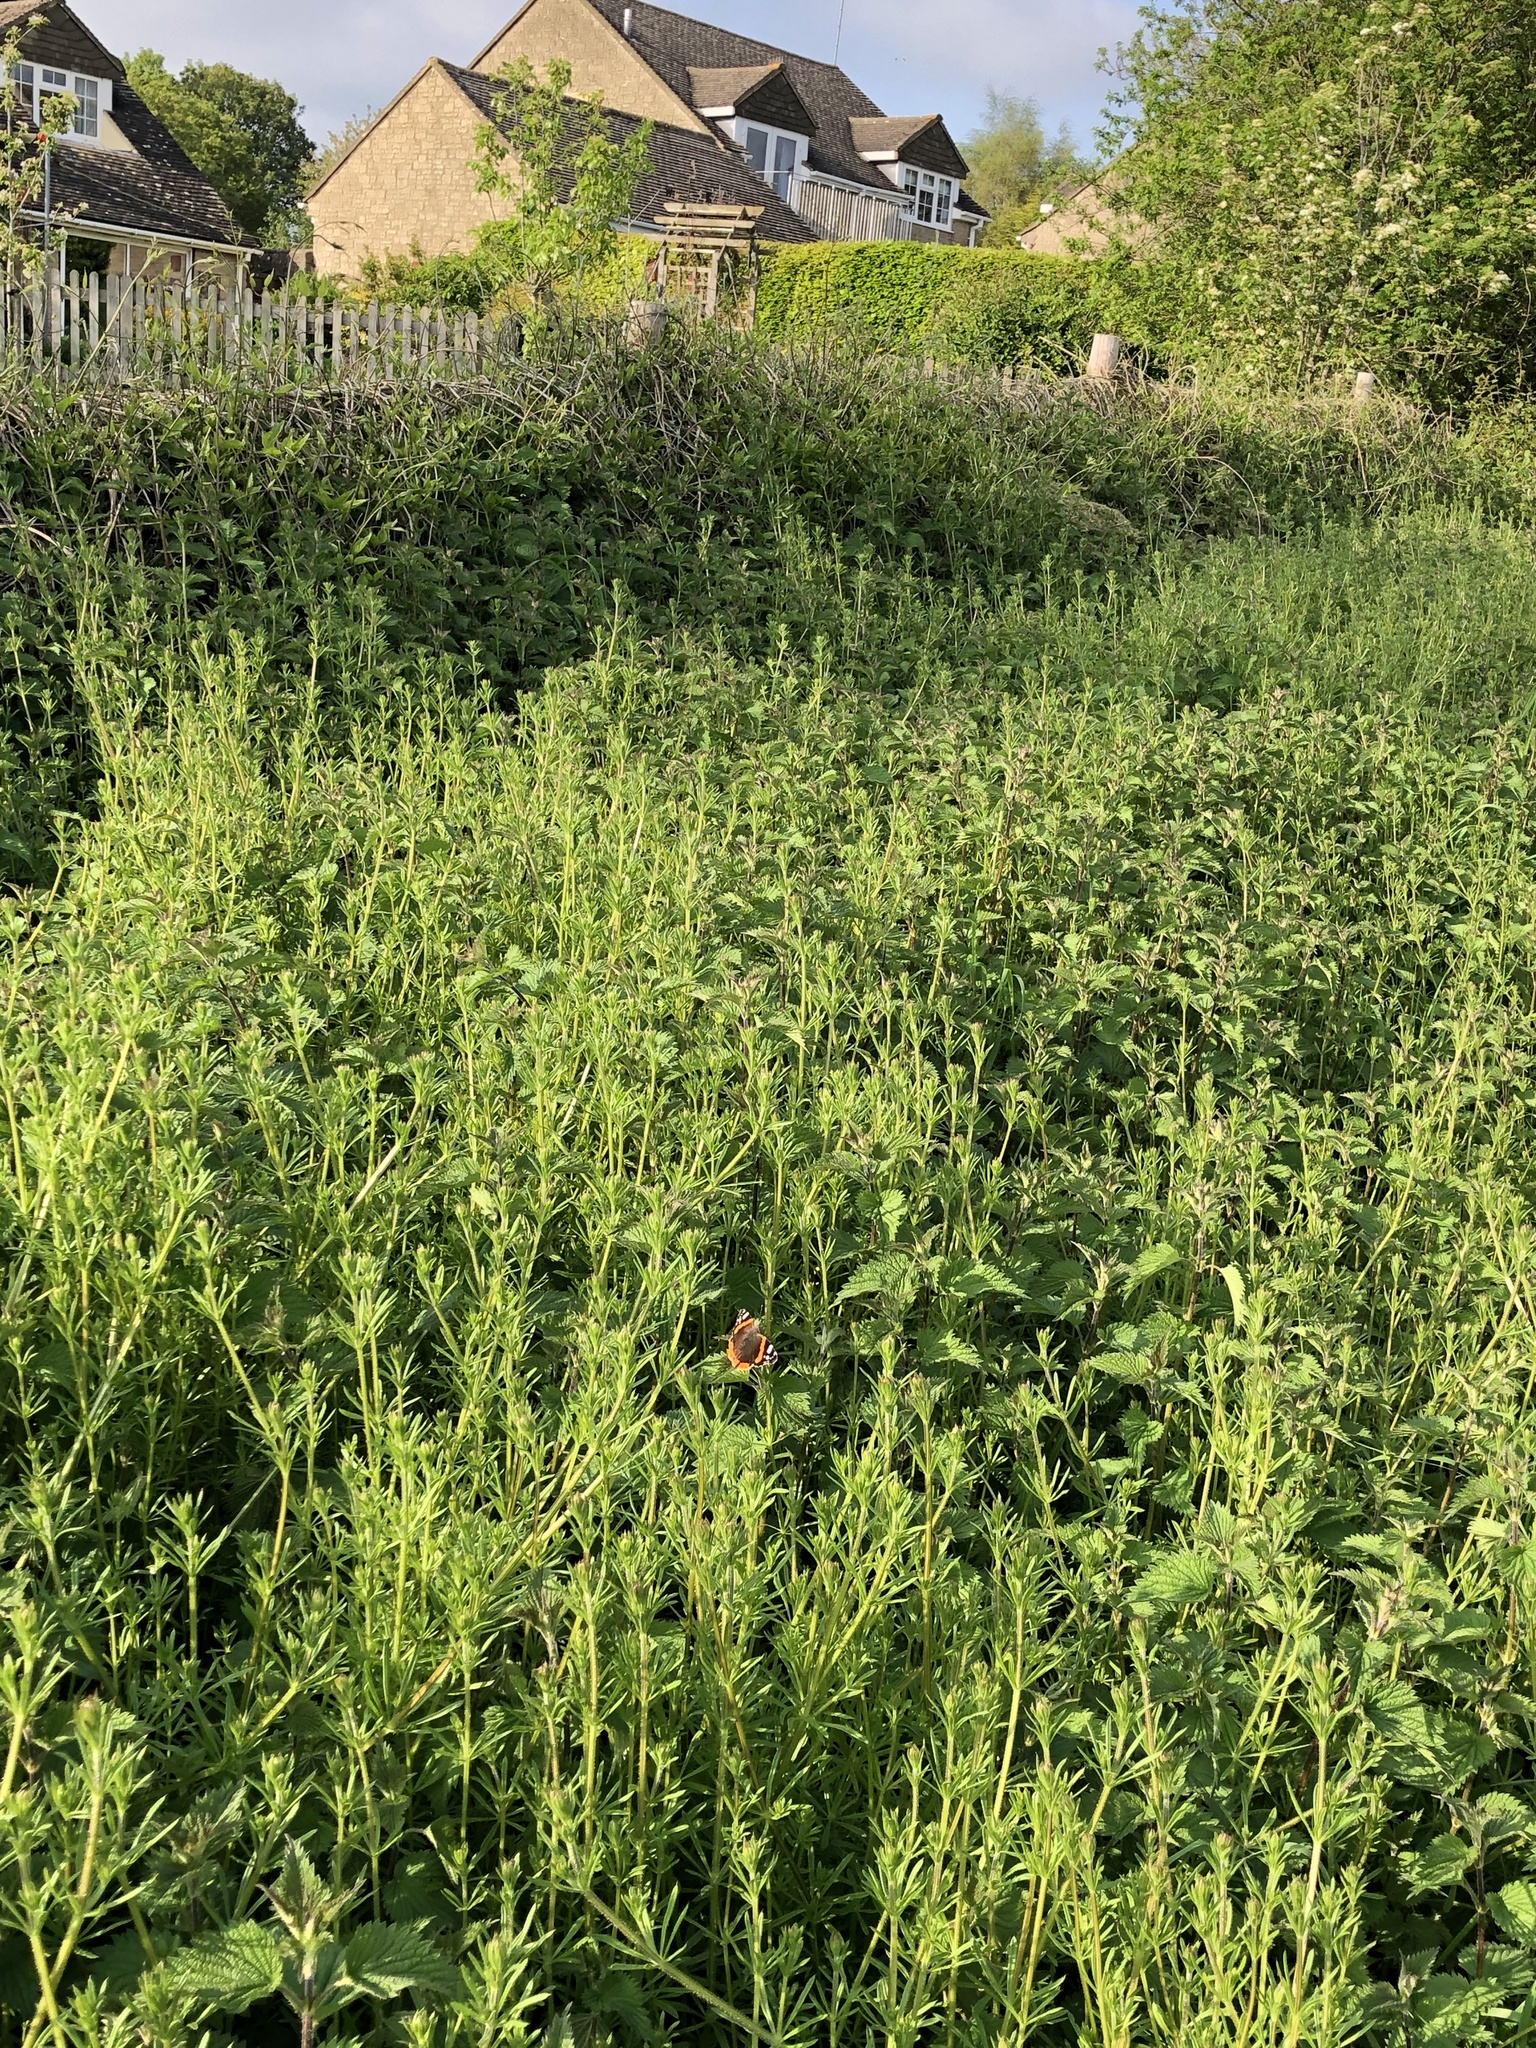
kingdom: Animalia
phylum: Arthropoda
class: Insecta
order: Lepidoptera
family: Nymphalidae
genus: Vanessa
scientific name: Vanessa atalanta
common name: Red admiral
